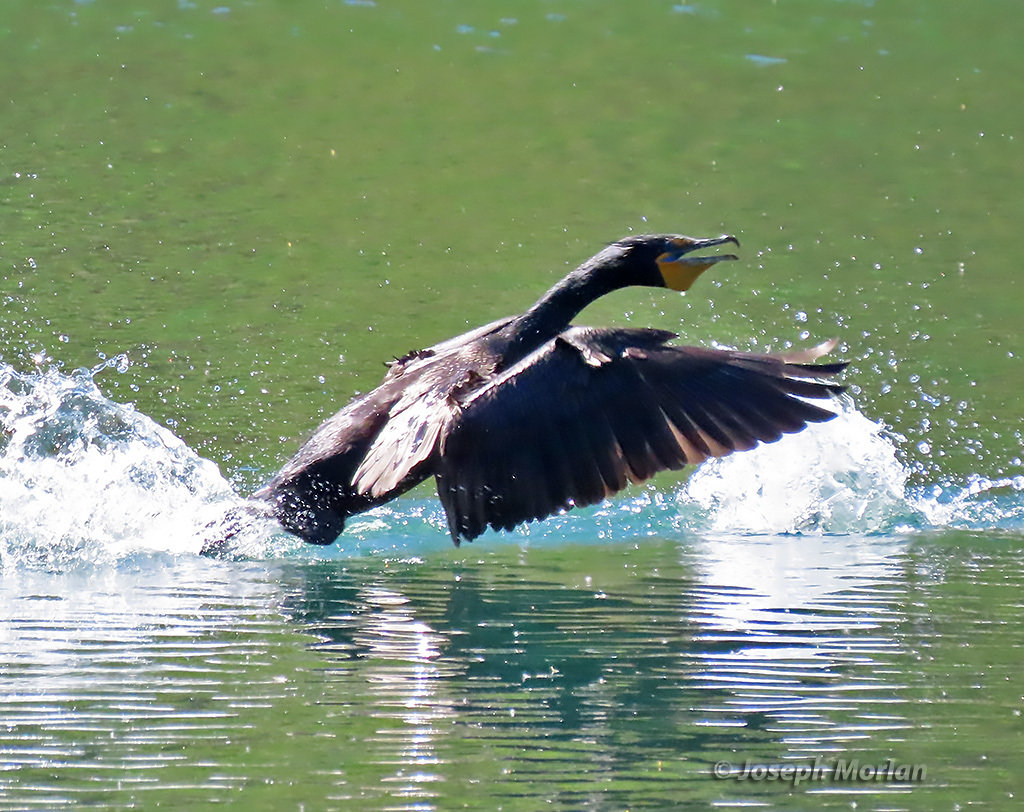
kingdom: Animalia
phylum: Chordata
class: Aves
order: Suliformes
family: Phalacrocoracidae
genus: Phalacrocorax
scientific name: Phalacrocorax auritus
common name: Double-crested cormorant
